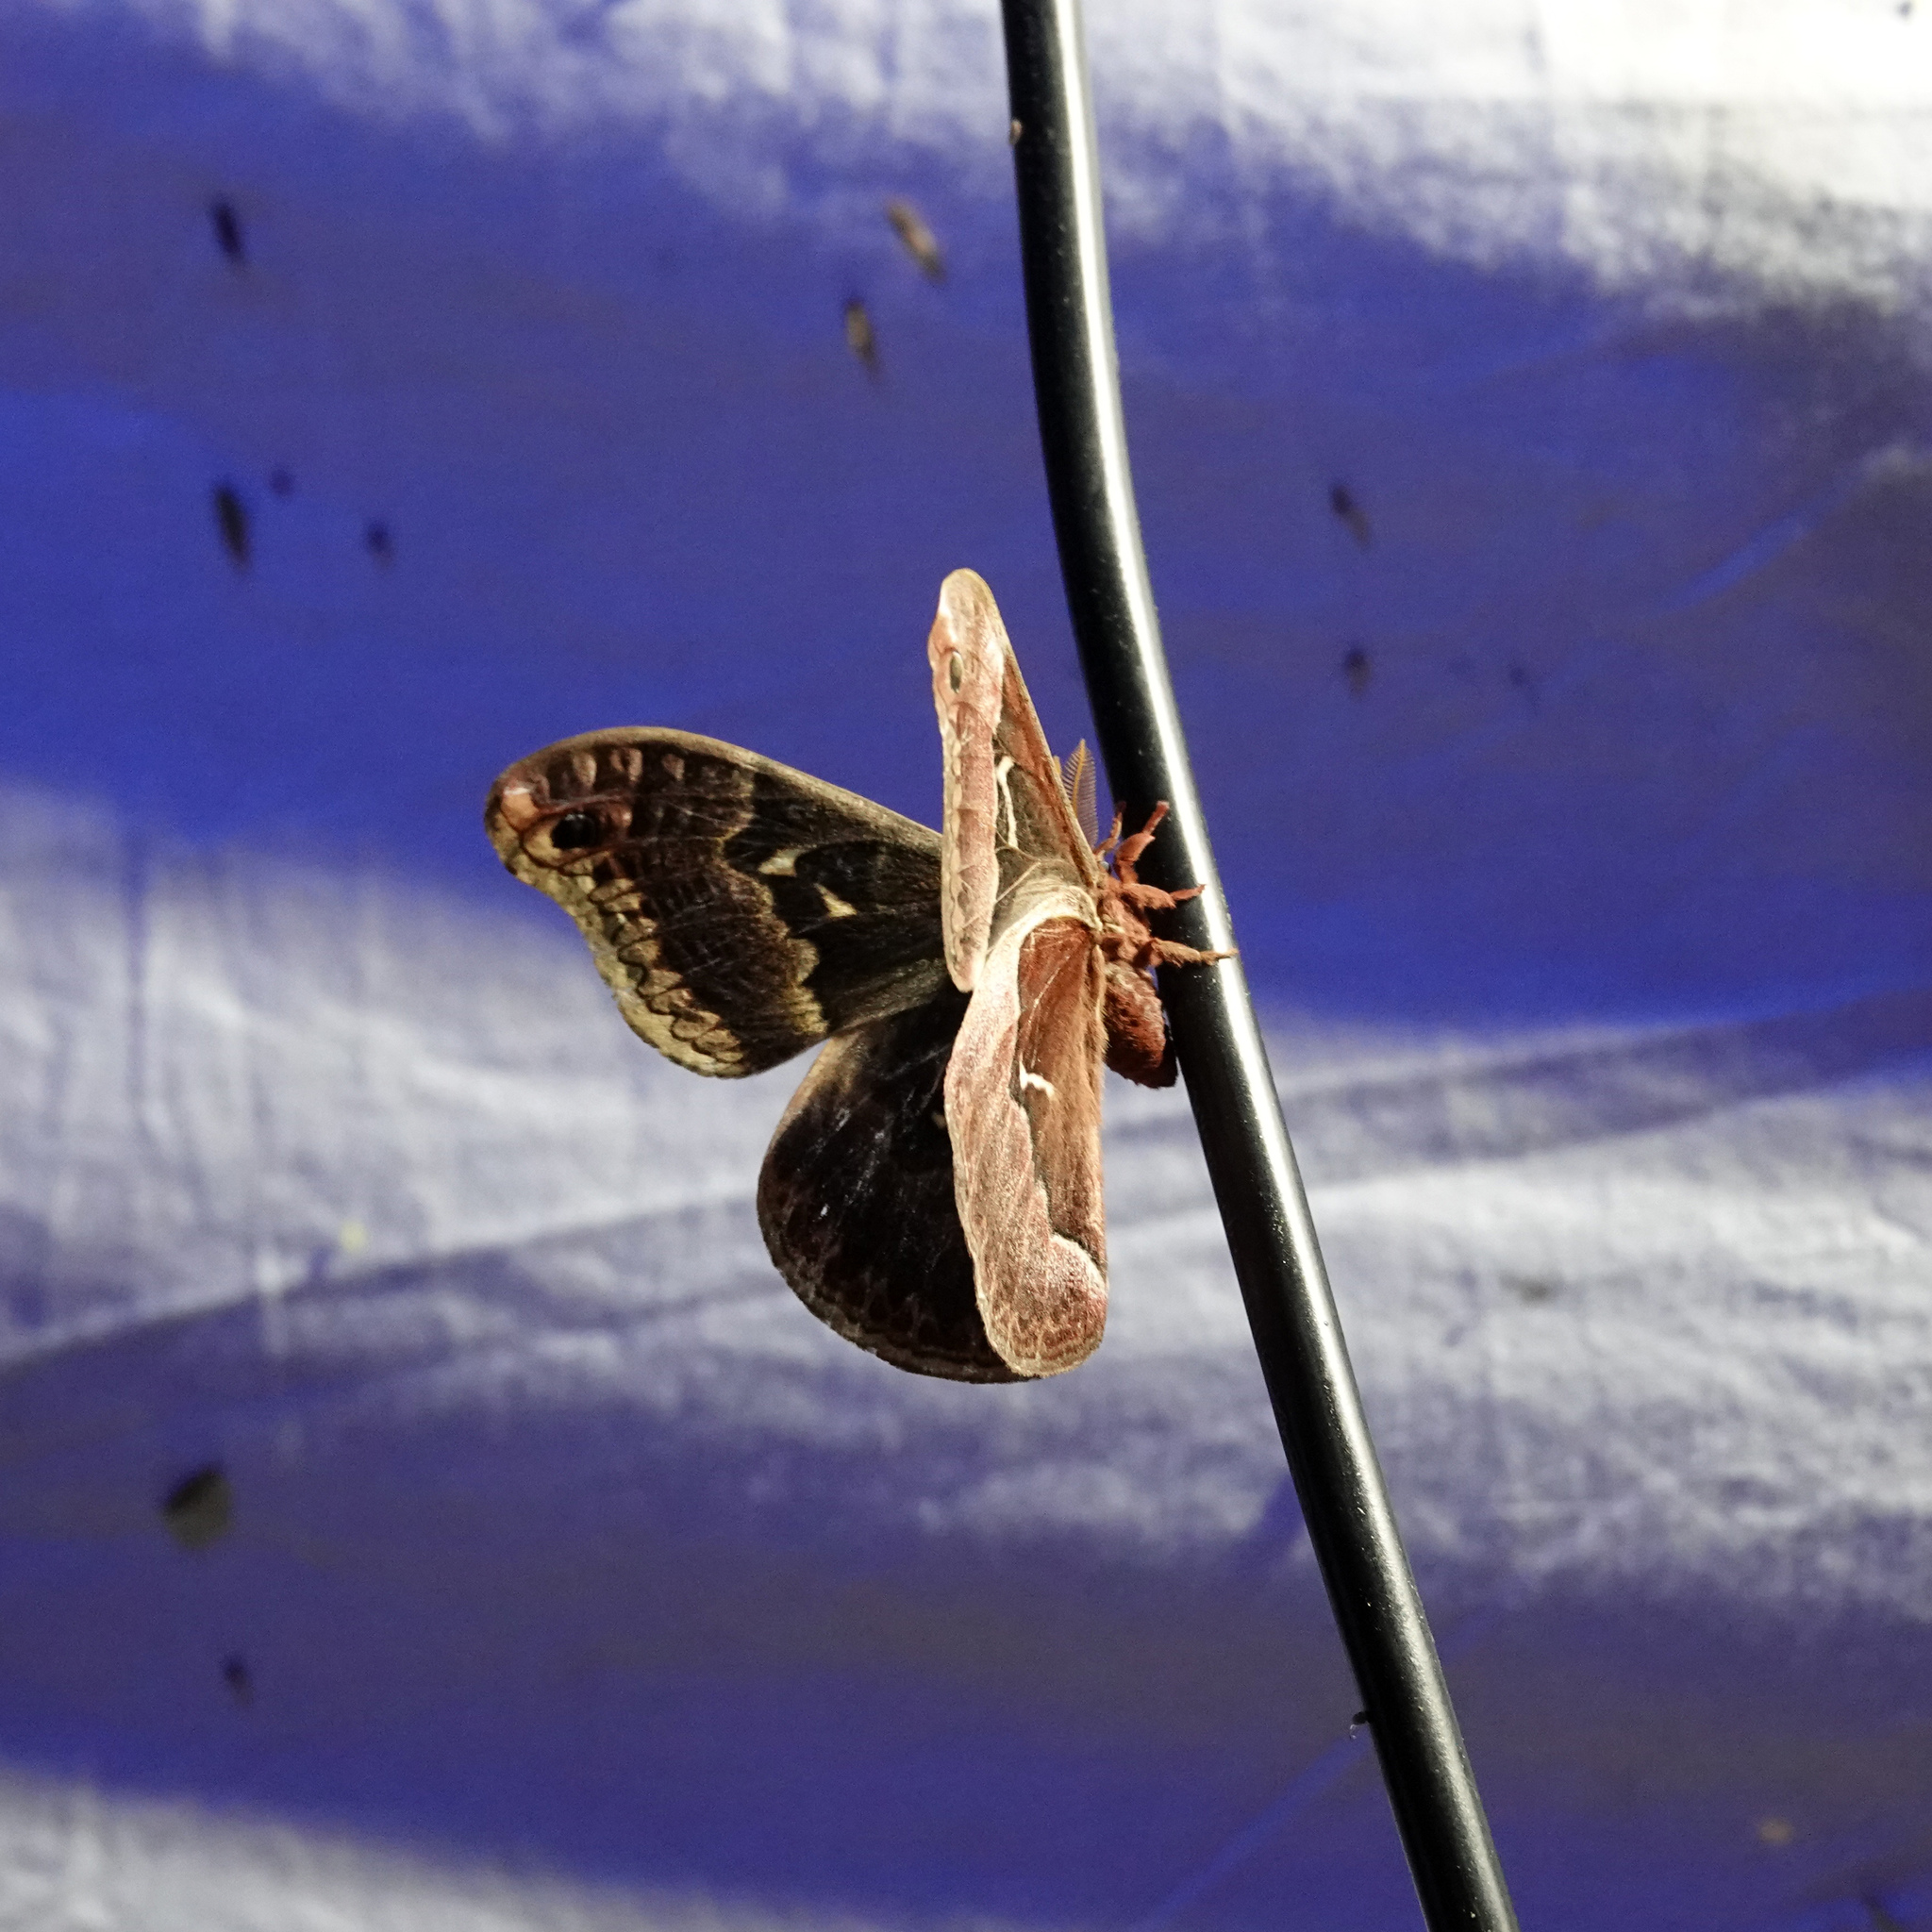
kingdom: Animalia
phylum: Arthropoda
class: Insecta
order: Lepidoptera
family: Saturniidae
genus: Callosamia
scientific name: Callosamia angulifera
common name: Tulip tree silkmoth
